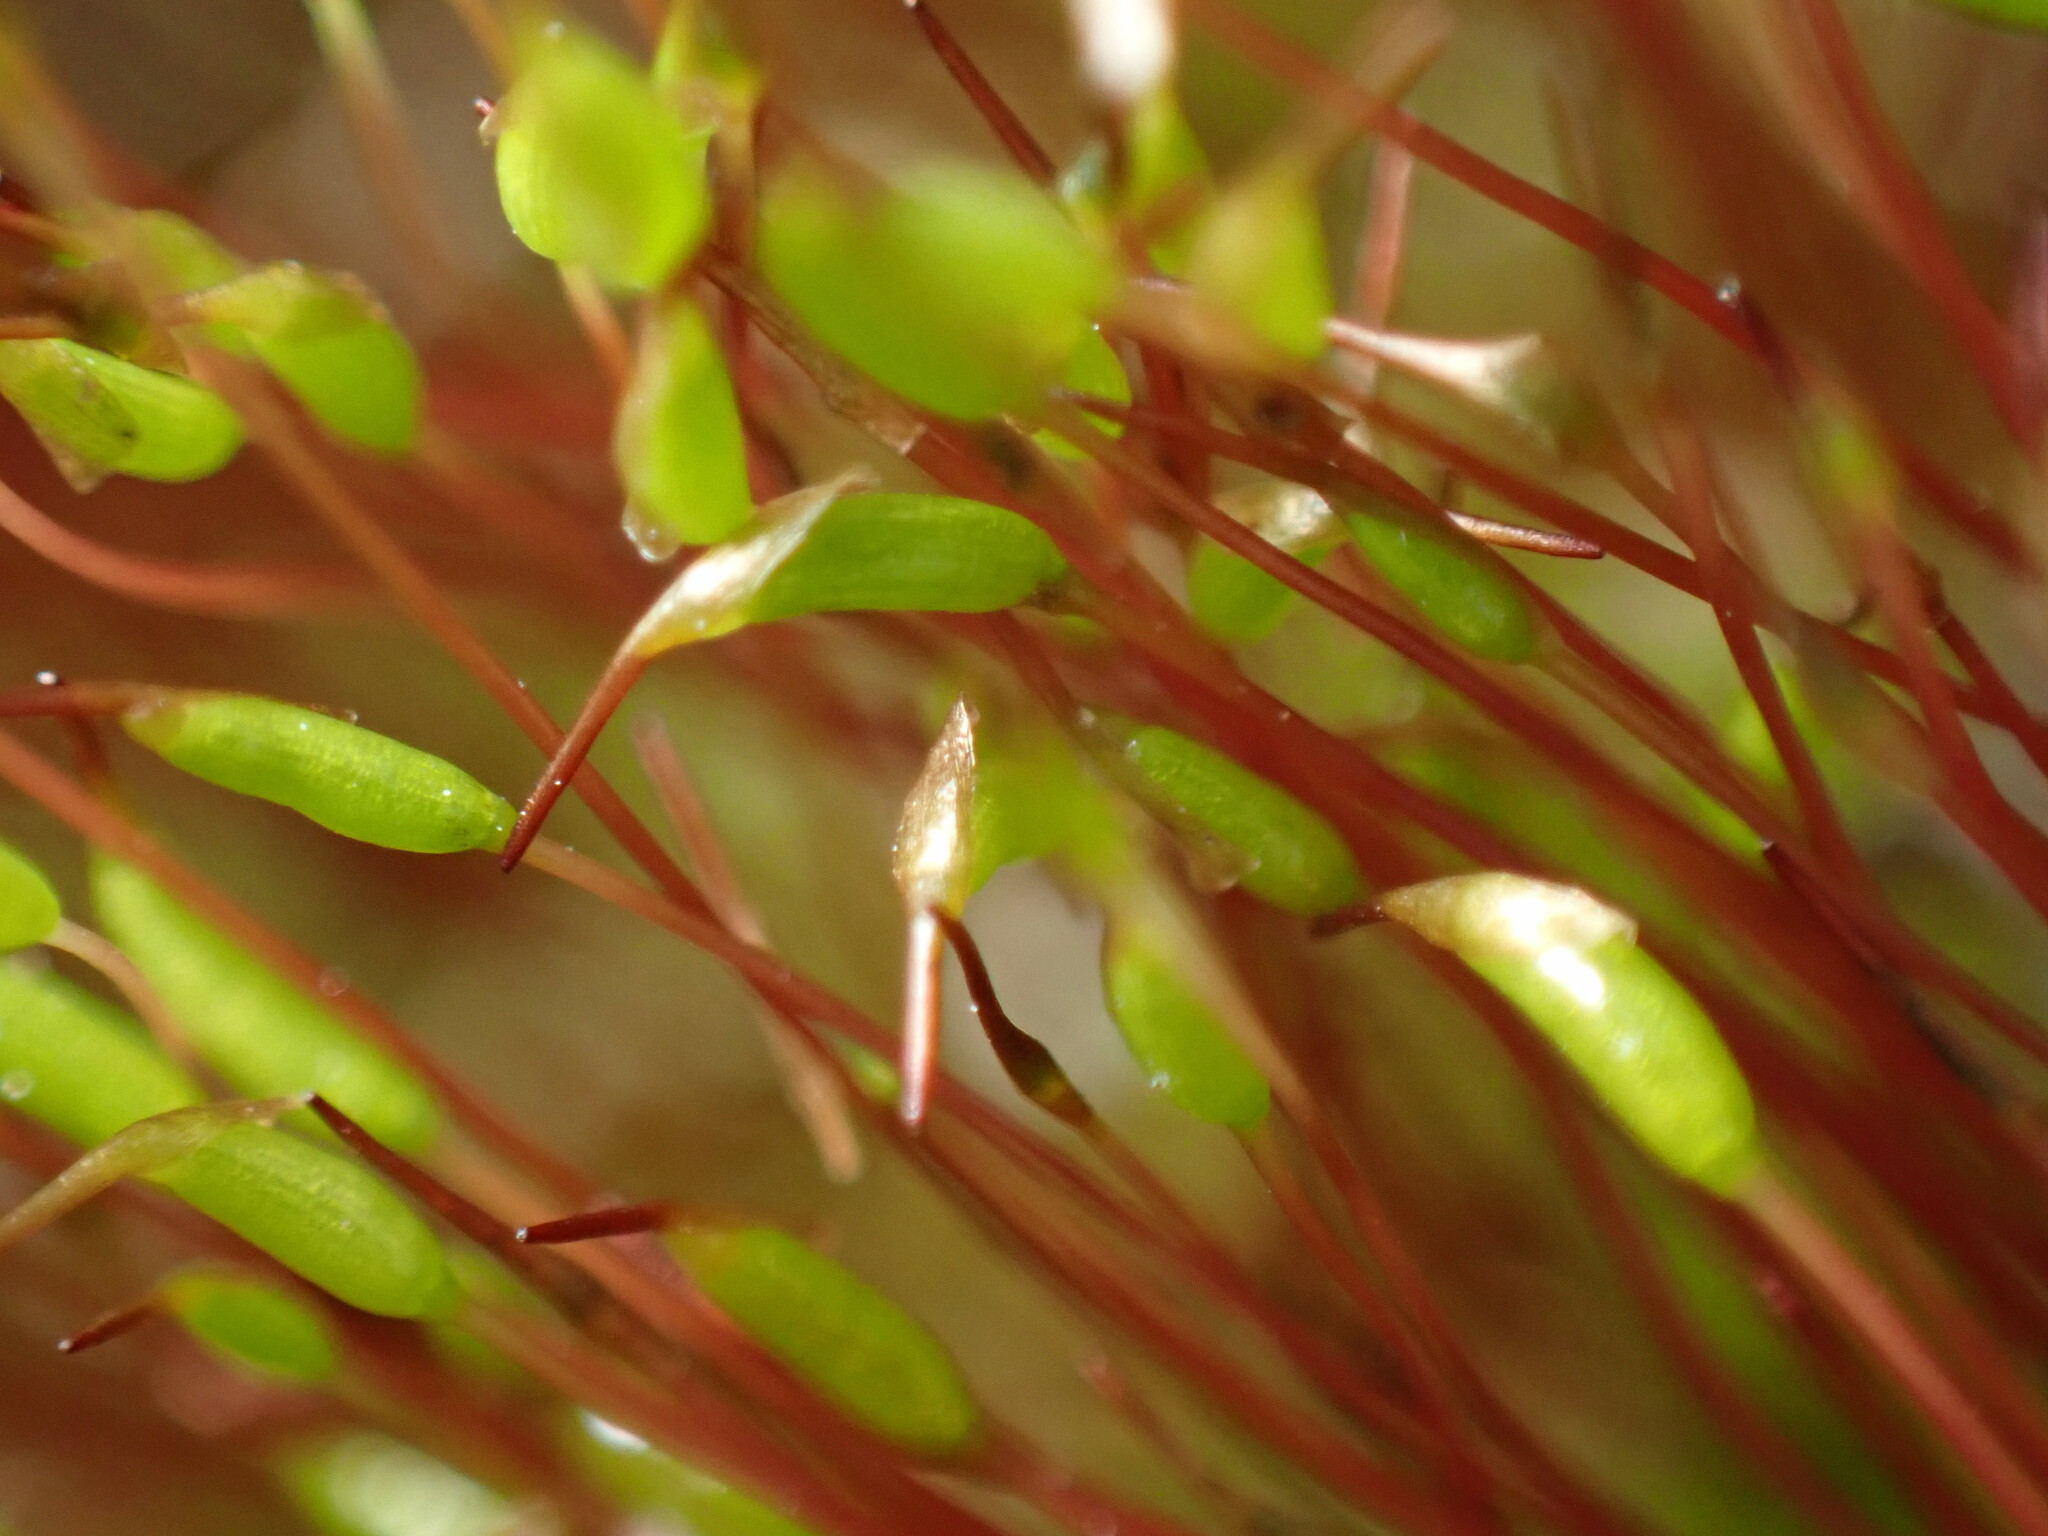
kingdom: Plantae
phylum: Bryophyta
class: Bryopsida
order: Dicranales
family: Ditrichaceae
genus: Ceratodon
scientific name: Ceratodon purpureus
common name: Redshank
